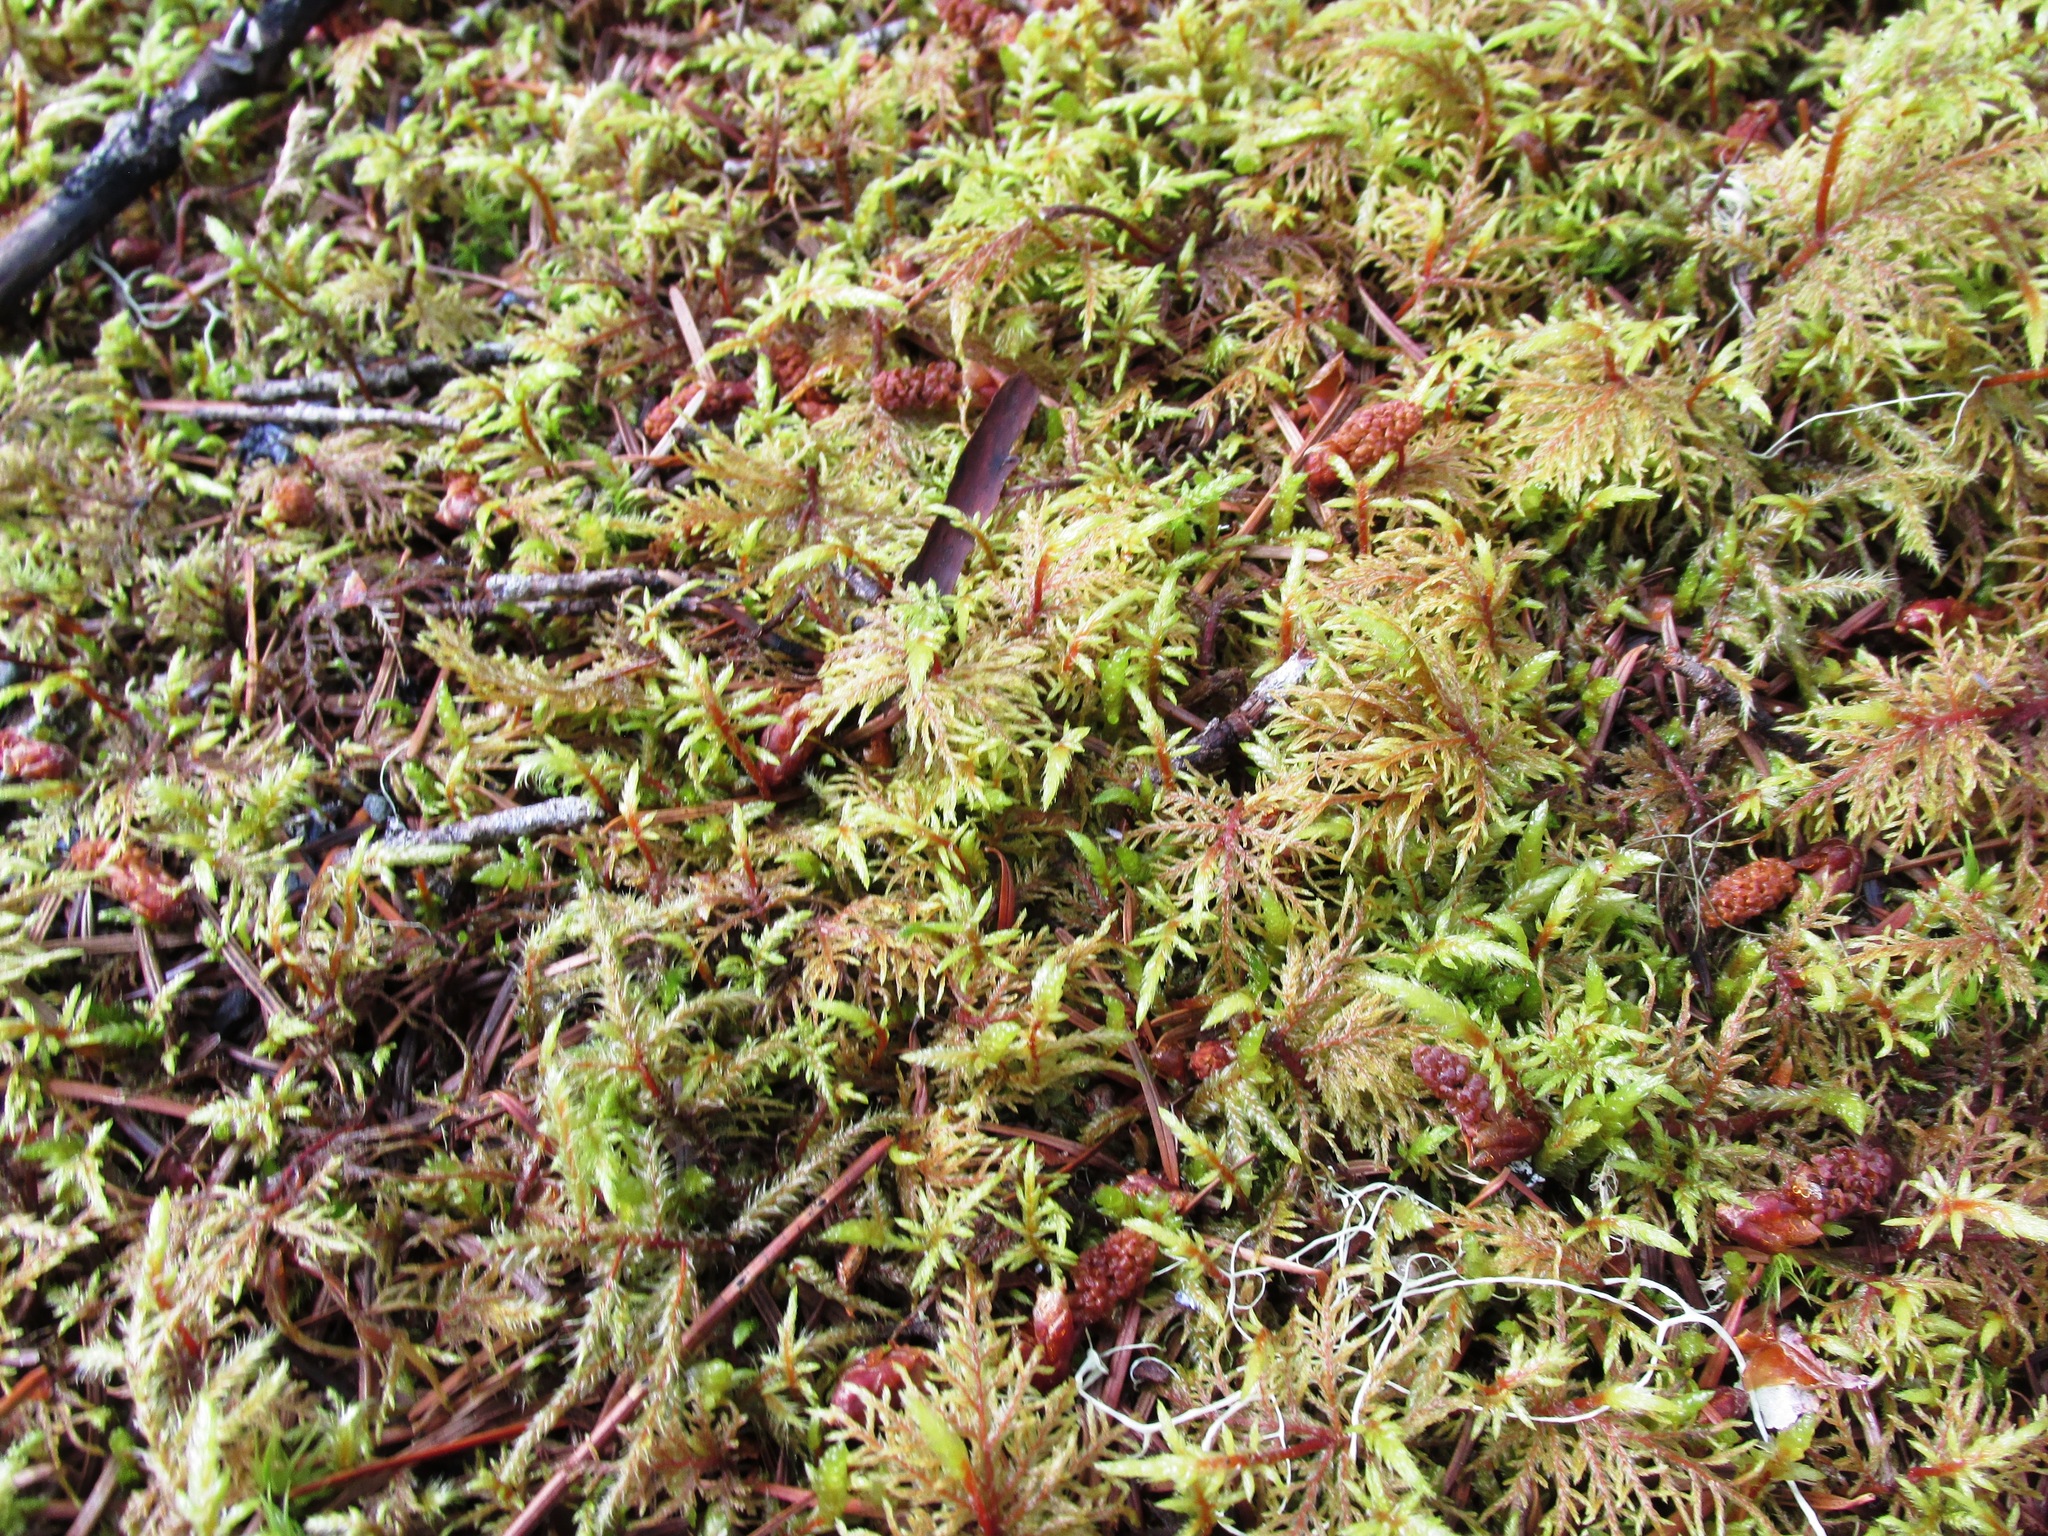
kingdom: Plantae
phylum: Bryophyta
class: Bryopsida
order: Hypnales
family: Hylocomiaceae
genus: Hylocomium
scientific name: Hylocomium splendens
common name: Stairstep moss
